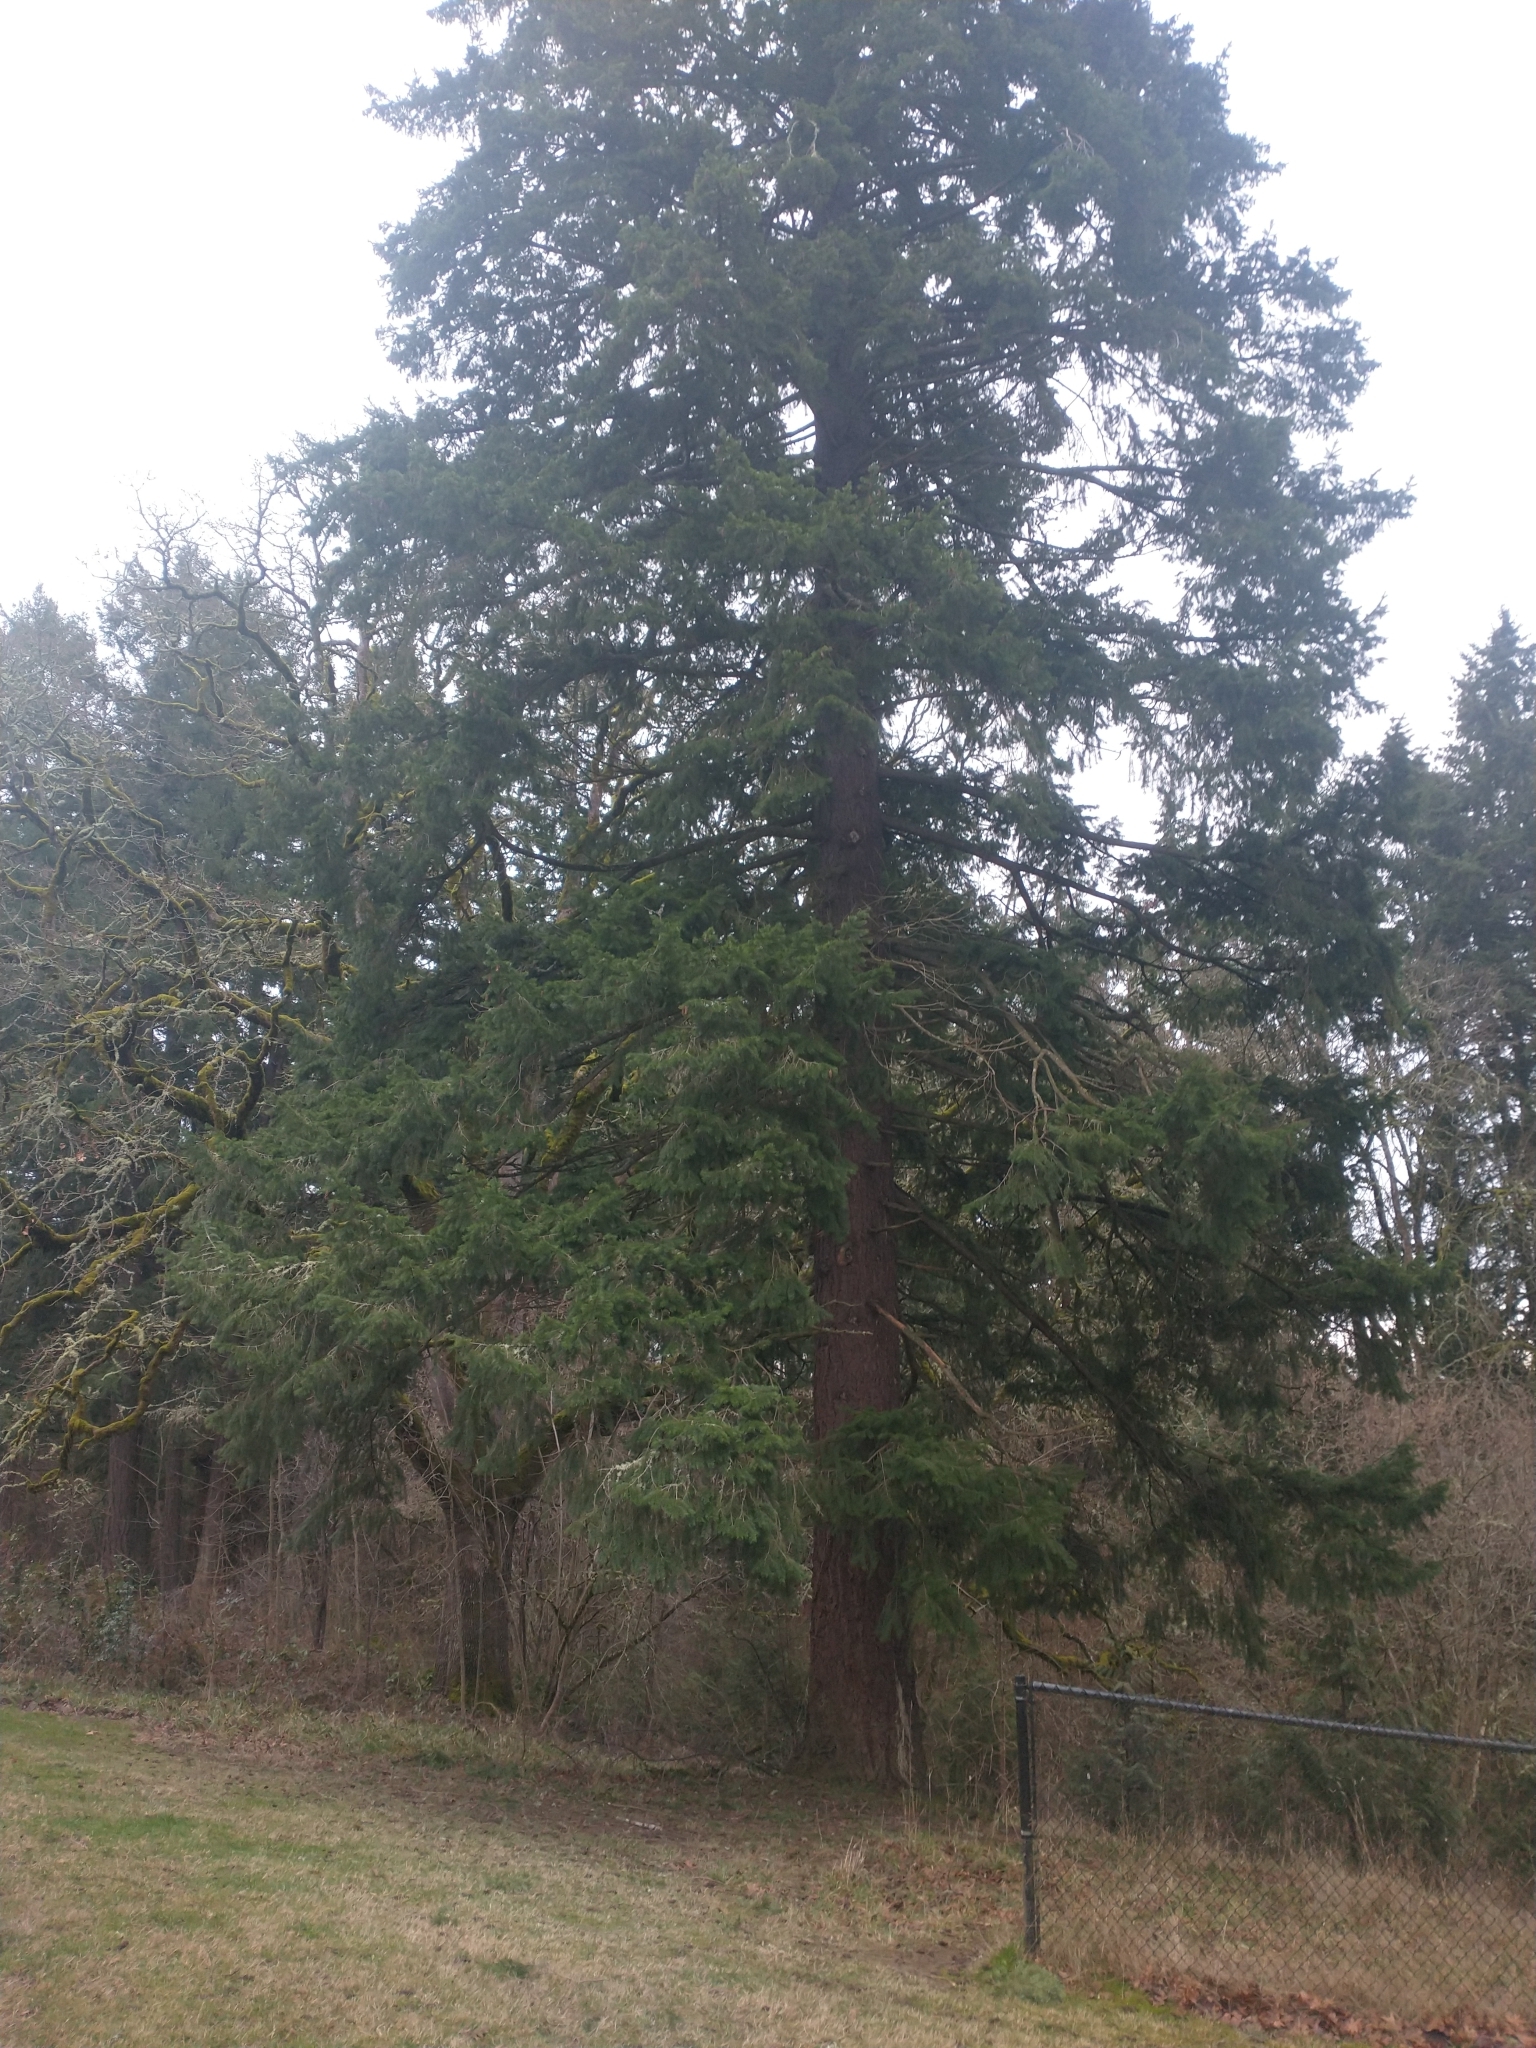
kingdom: Plantae
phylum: Tracheophyta
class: Pinopsida
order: Pinales
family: Pinaceae
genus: Pseudotsuga
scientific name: Pseudotsuga menziesii
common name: Douglas fir
